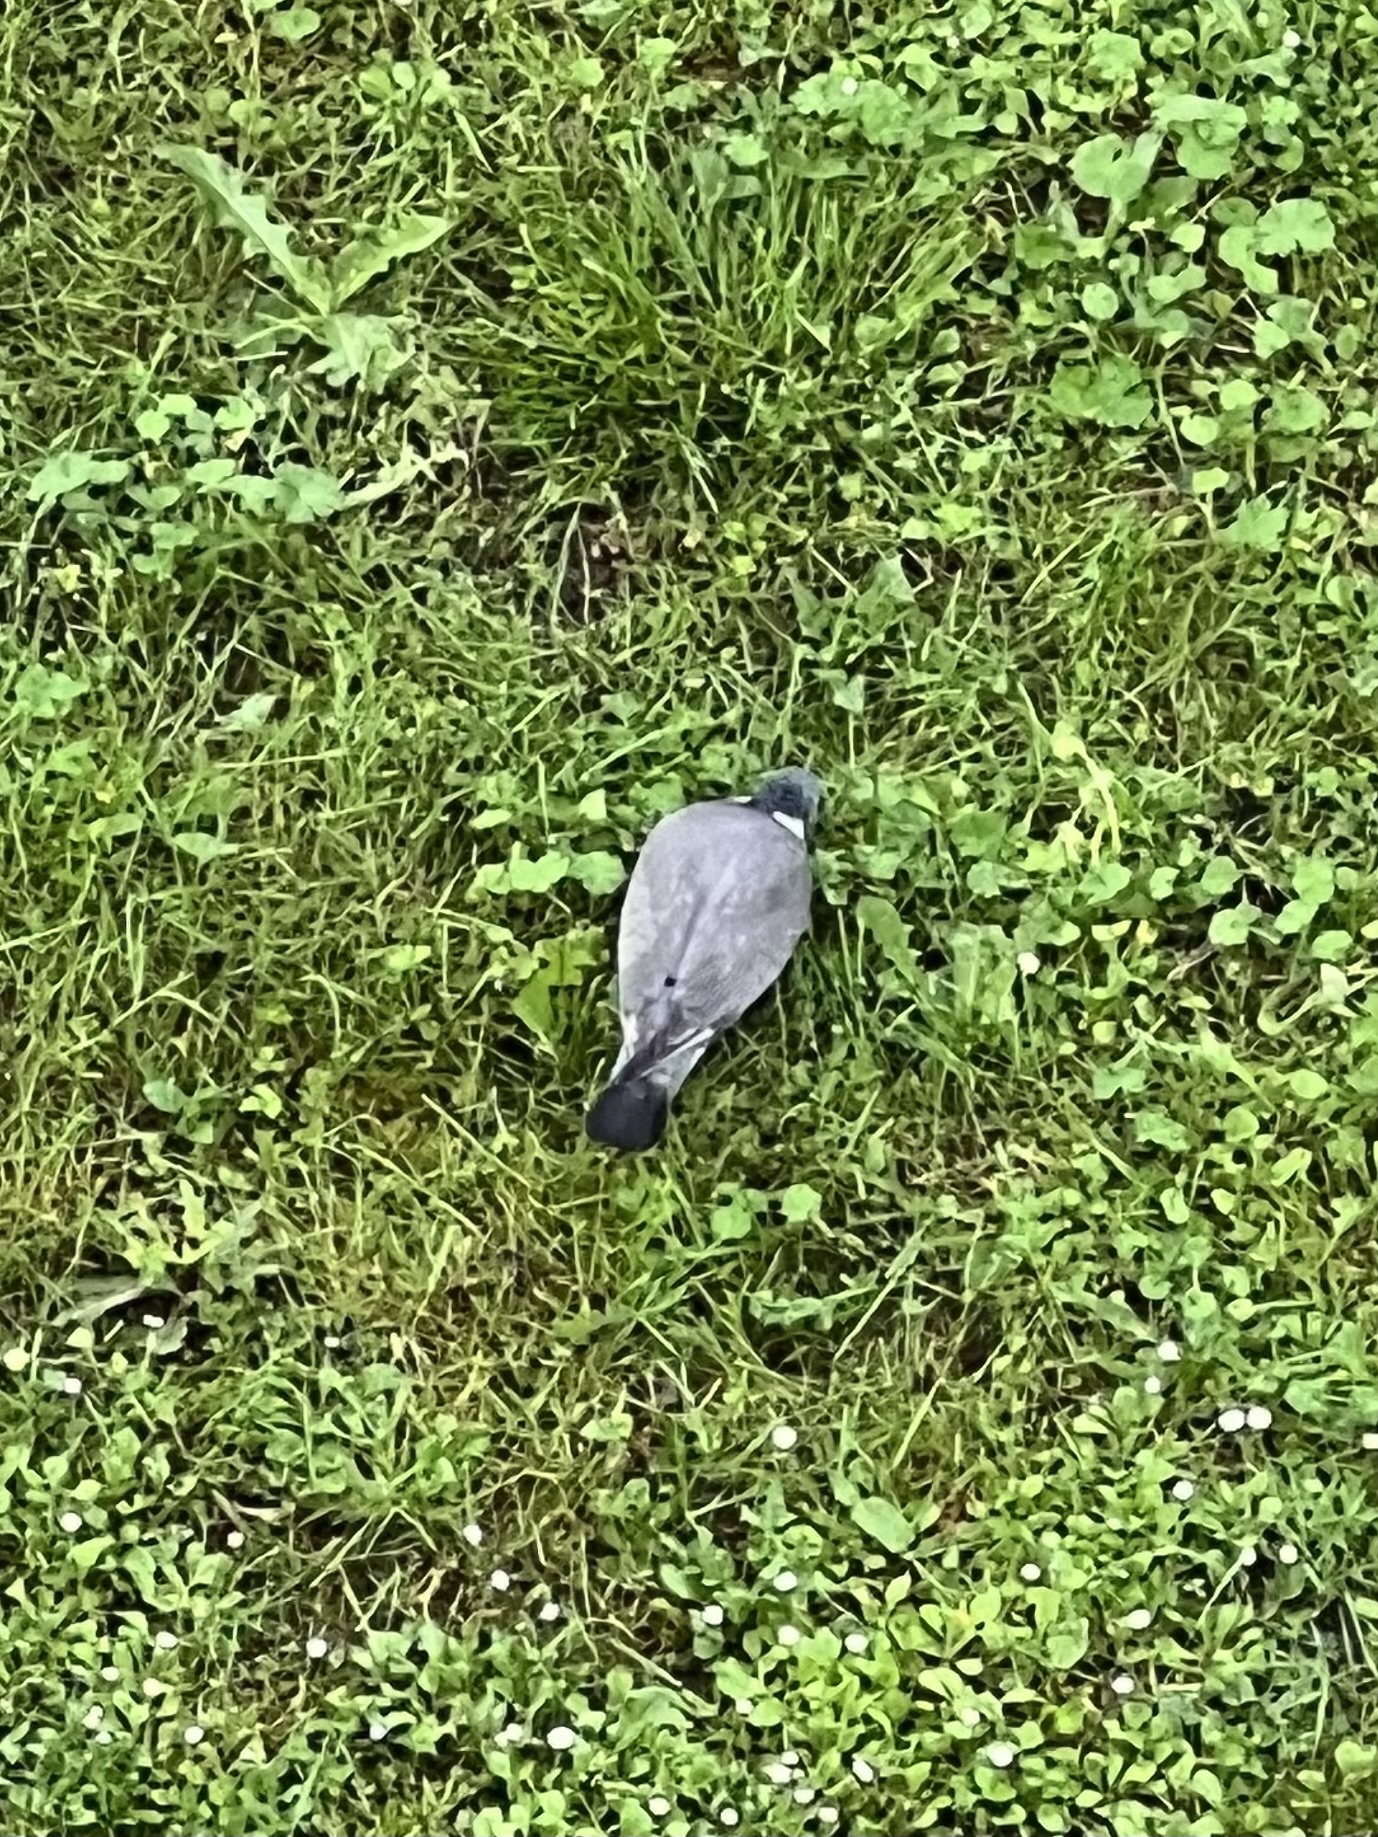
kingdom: Animalia
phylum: Chordata
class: Aves
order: Columbiformes
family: Columbidae
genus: Columba
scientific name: Columba palumbus
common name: Common wood pigeon
